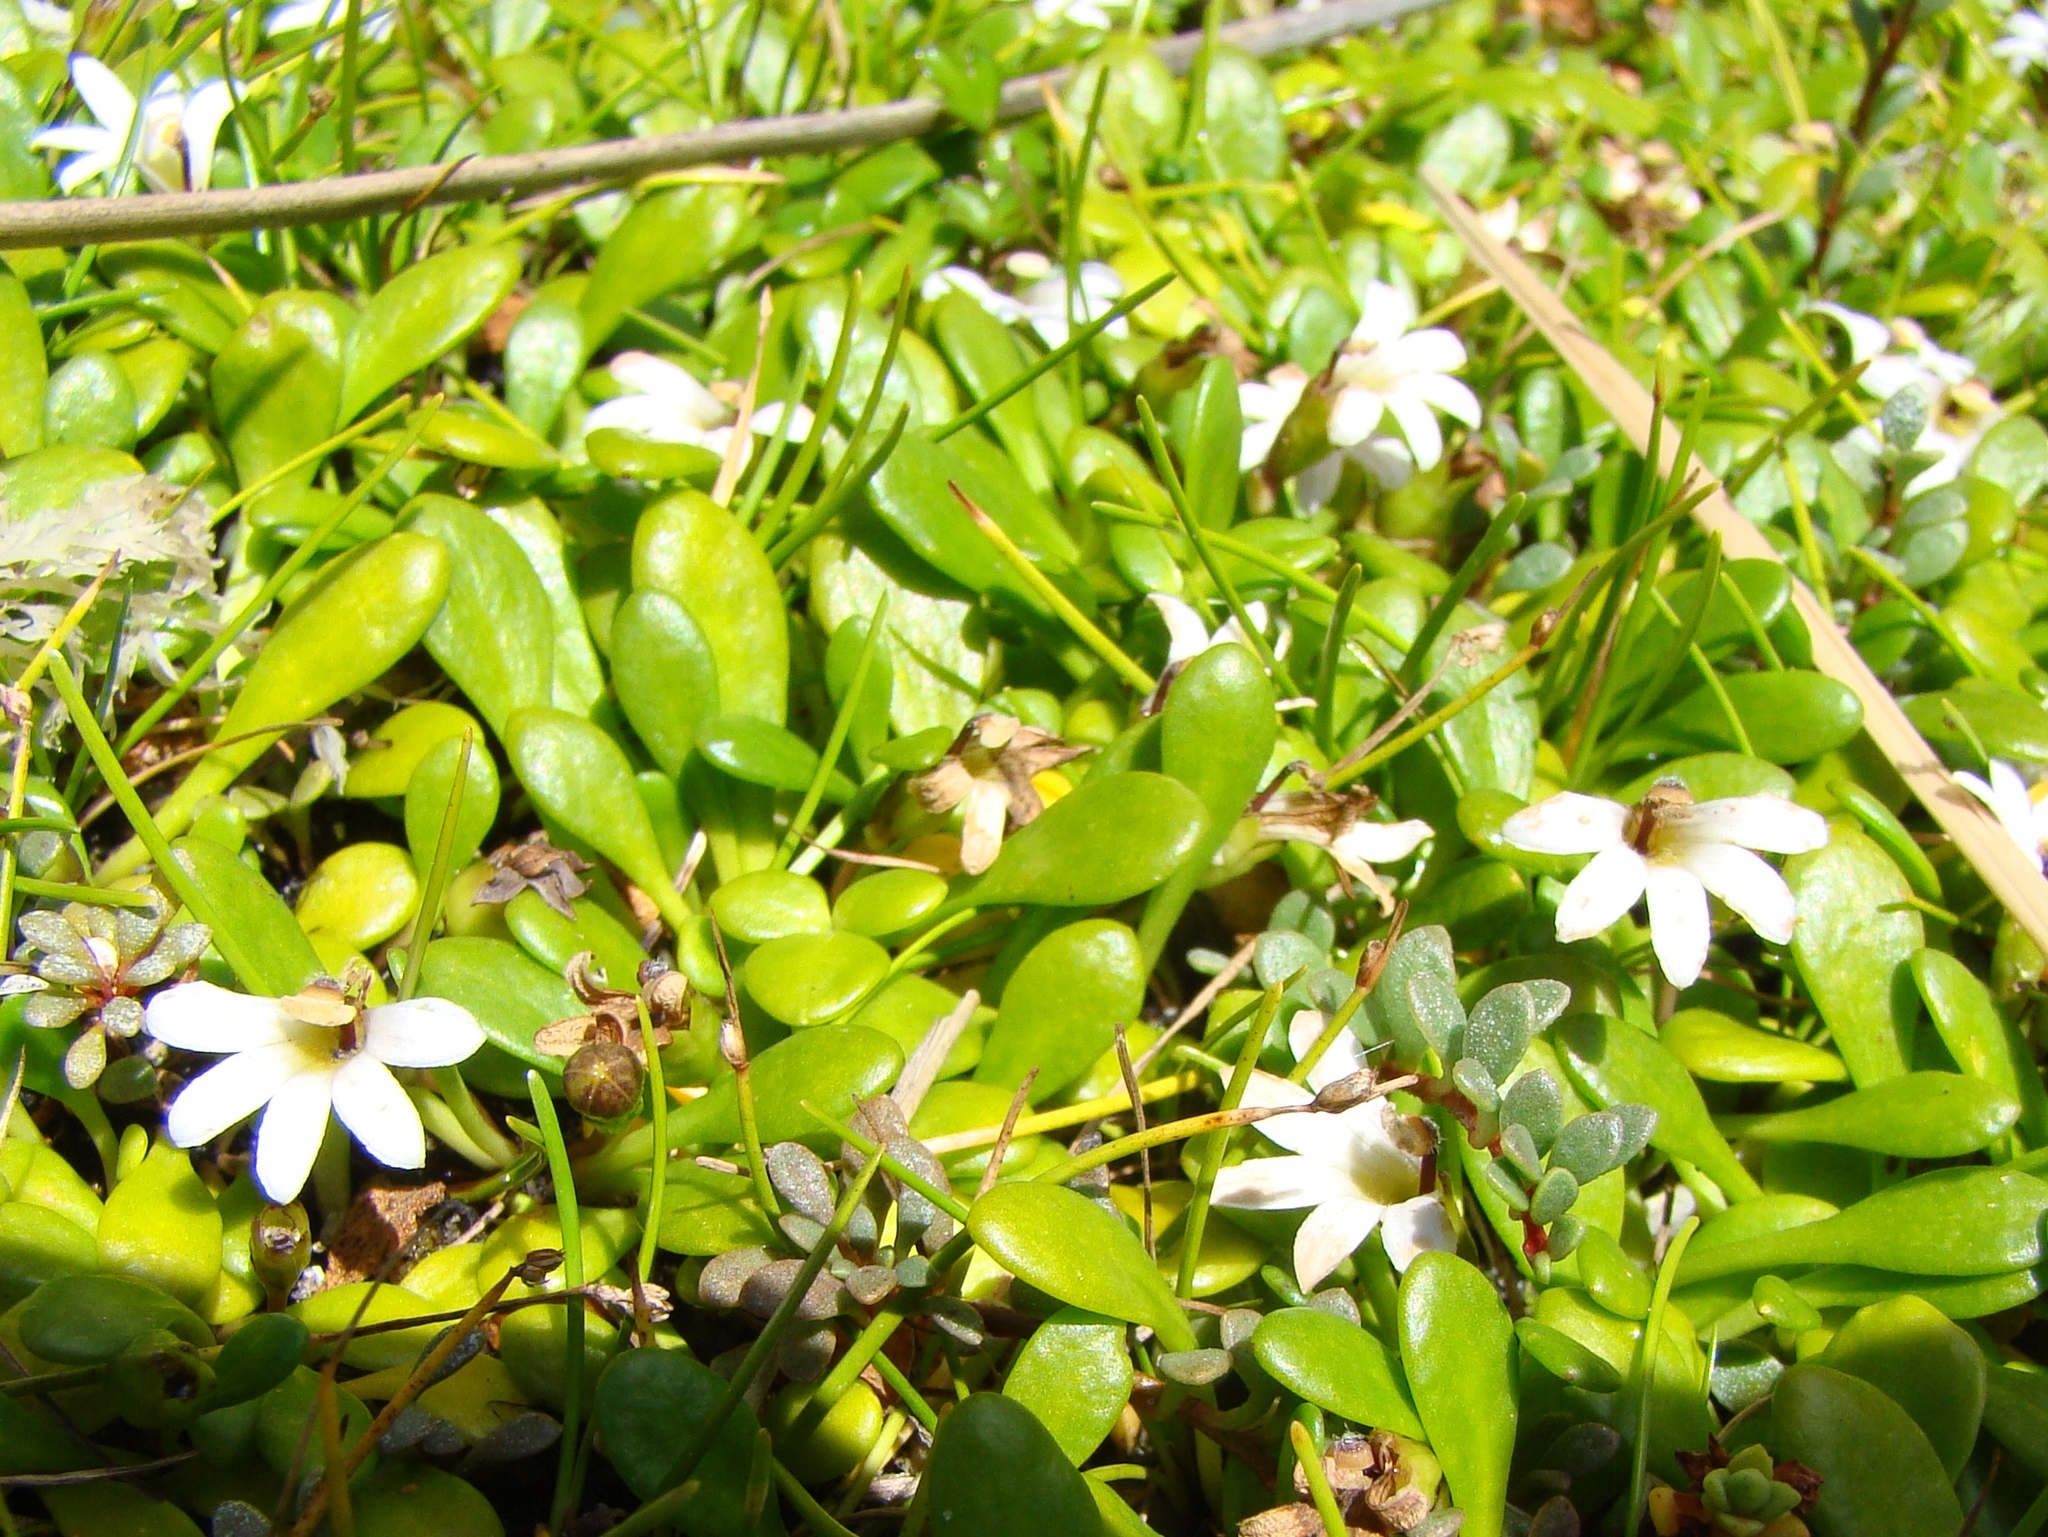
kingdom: Plantae
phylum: Tracheophyta
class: Magnoliopsida
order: Asterales
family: Goodeniaceae
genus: Goodenia
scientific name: Goodenia radicans
